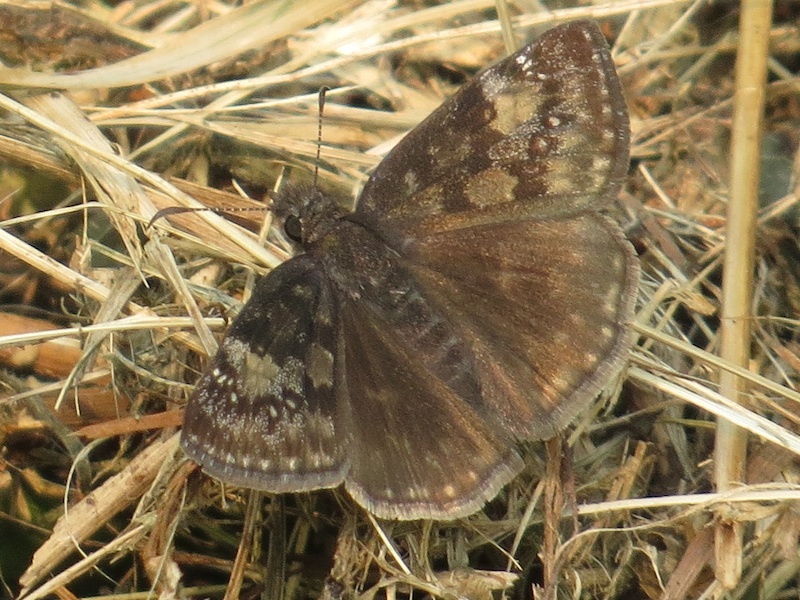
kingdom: Animalia
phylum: Arthropoda
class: Insecta
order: Lepidoptera
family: Hesperiidae
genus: Erynnis
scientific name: Erynnis baptisiae
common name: Wild indigo duskywing
